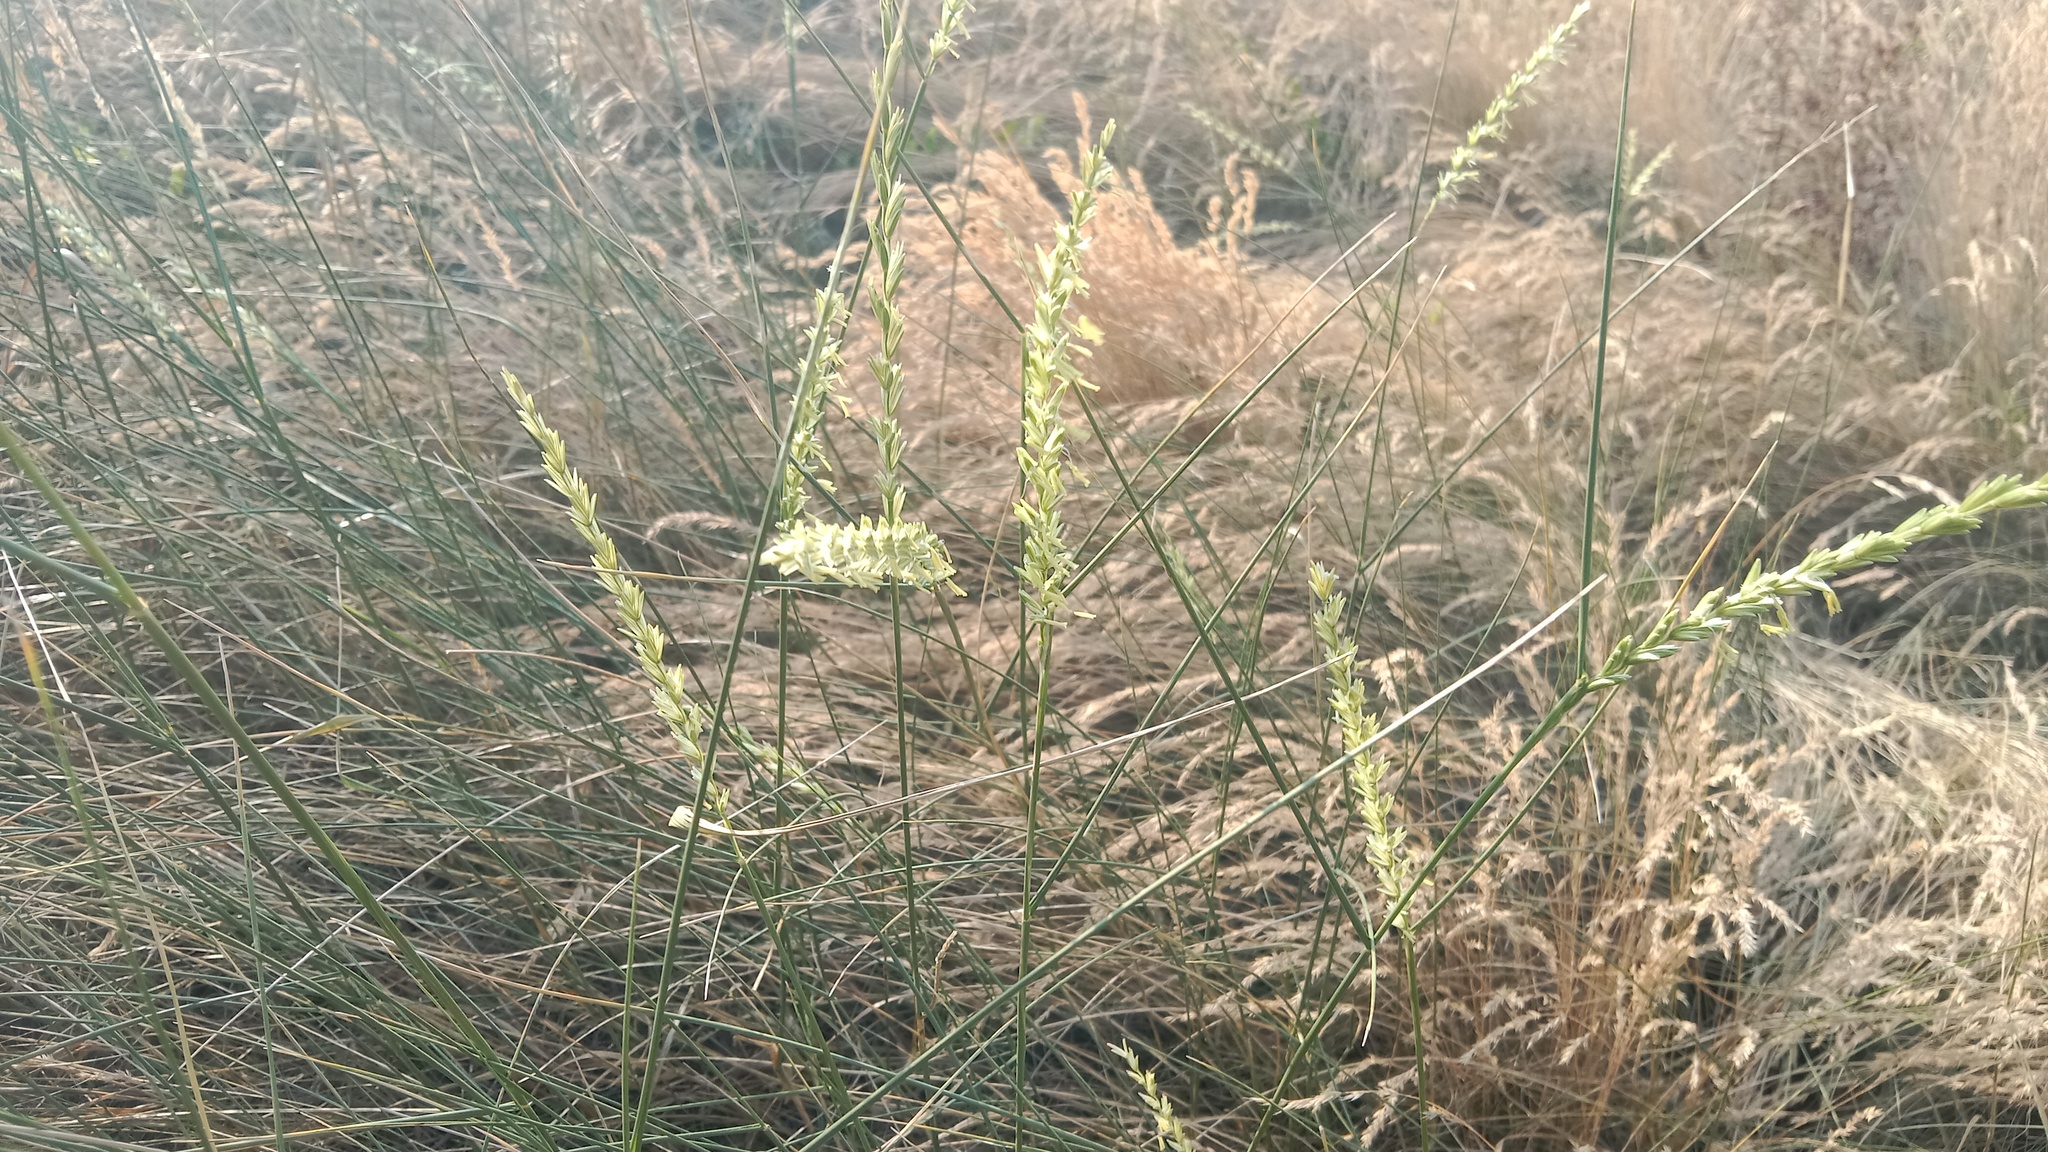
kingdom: Plantae
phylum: Tracheophyta
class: Liliopsida
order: Poales
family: Poaceae
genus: Thinopyrum
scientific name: Thinopyrum intermedium
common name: Intermediate wheatgrass
